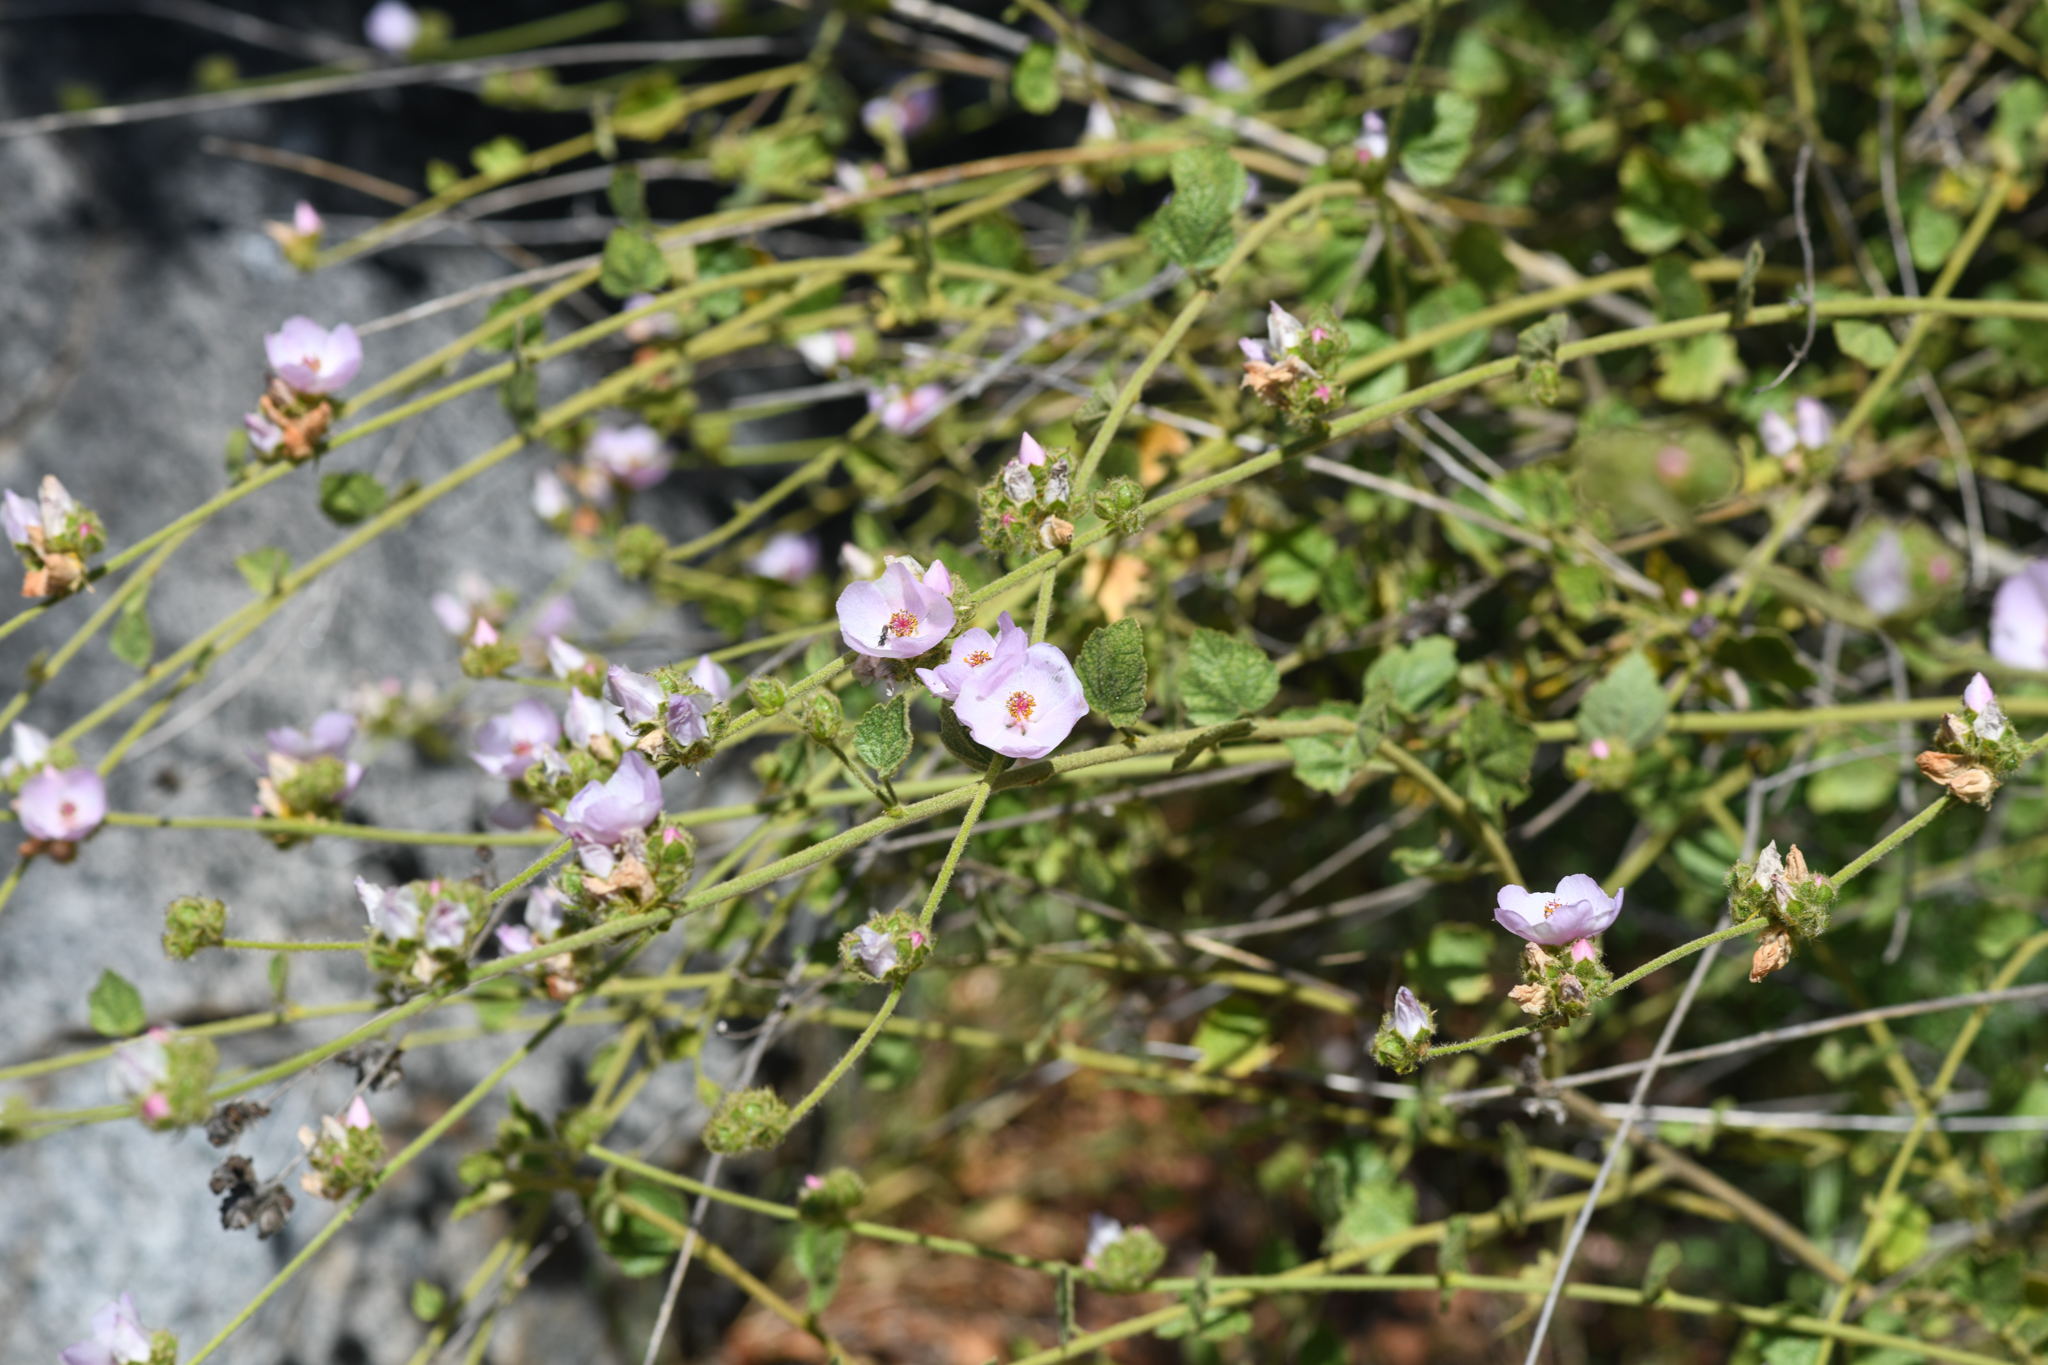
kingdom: Plantae
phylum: Tracheophyta
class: Magnoliopsida
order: Malvales
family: Malvaceae
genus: Malacothamnus
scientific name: Malacothamnus densiflorus
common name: Yellow-stem bush-mallow
